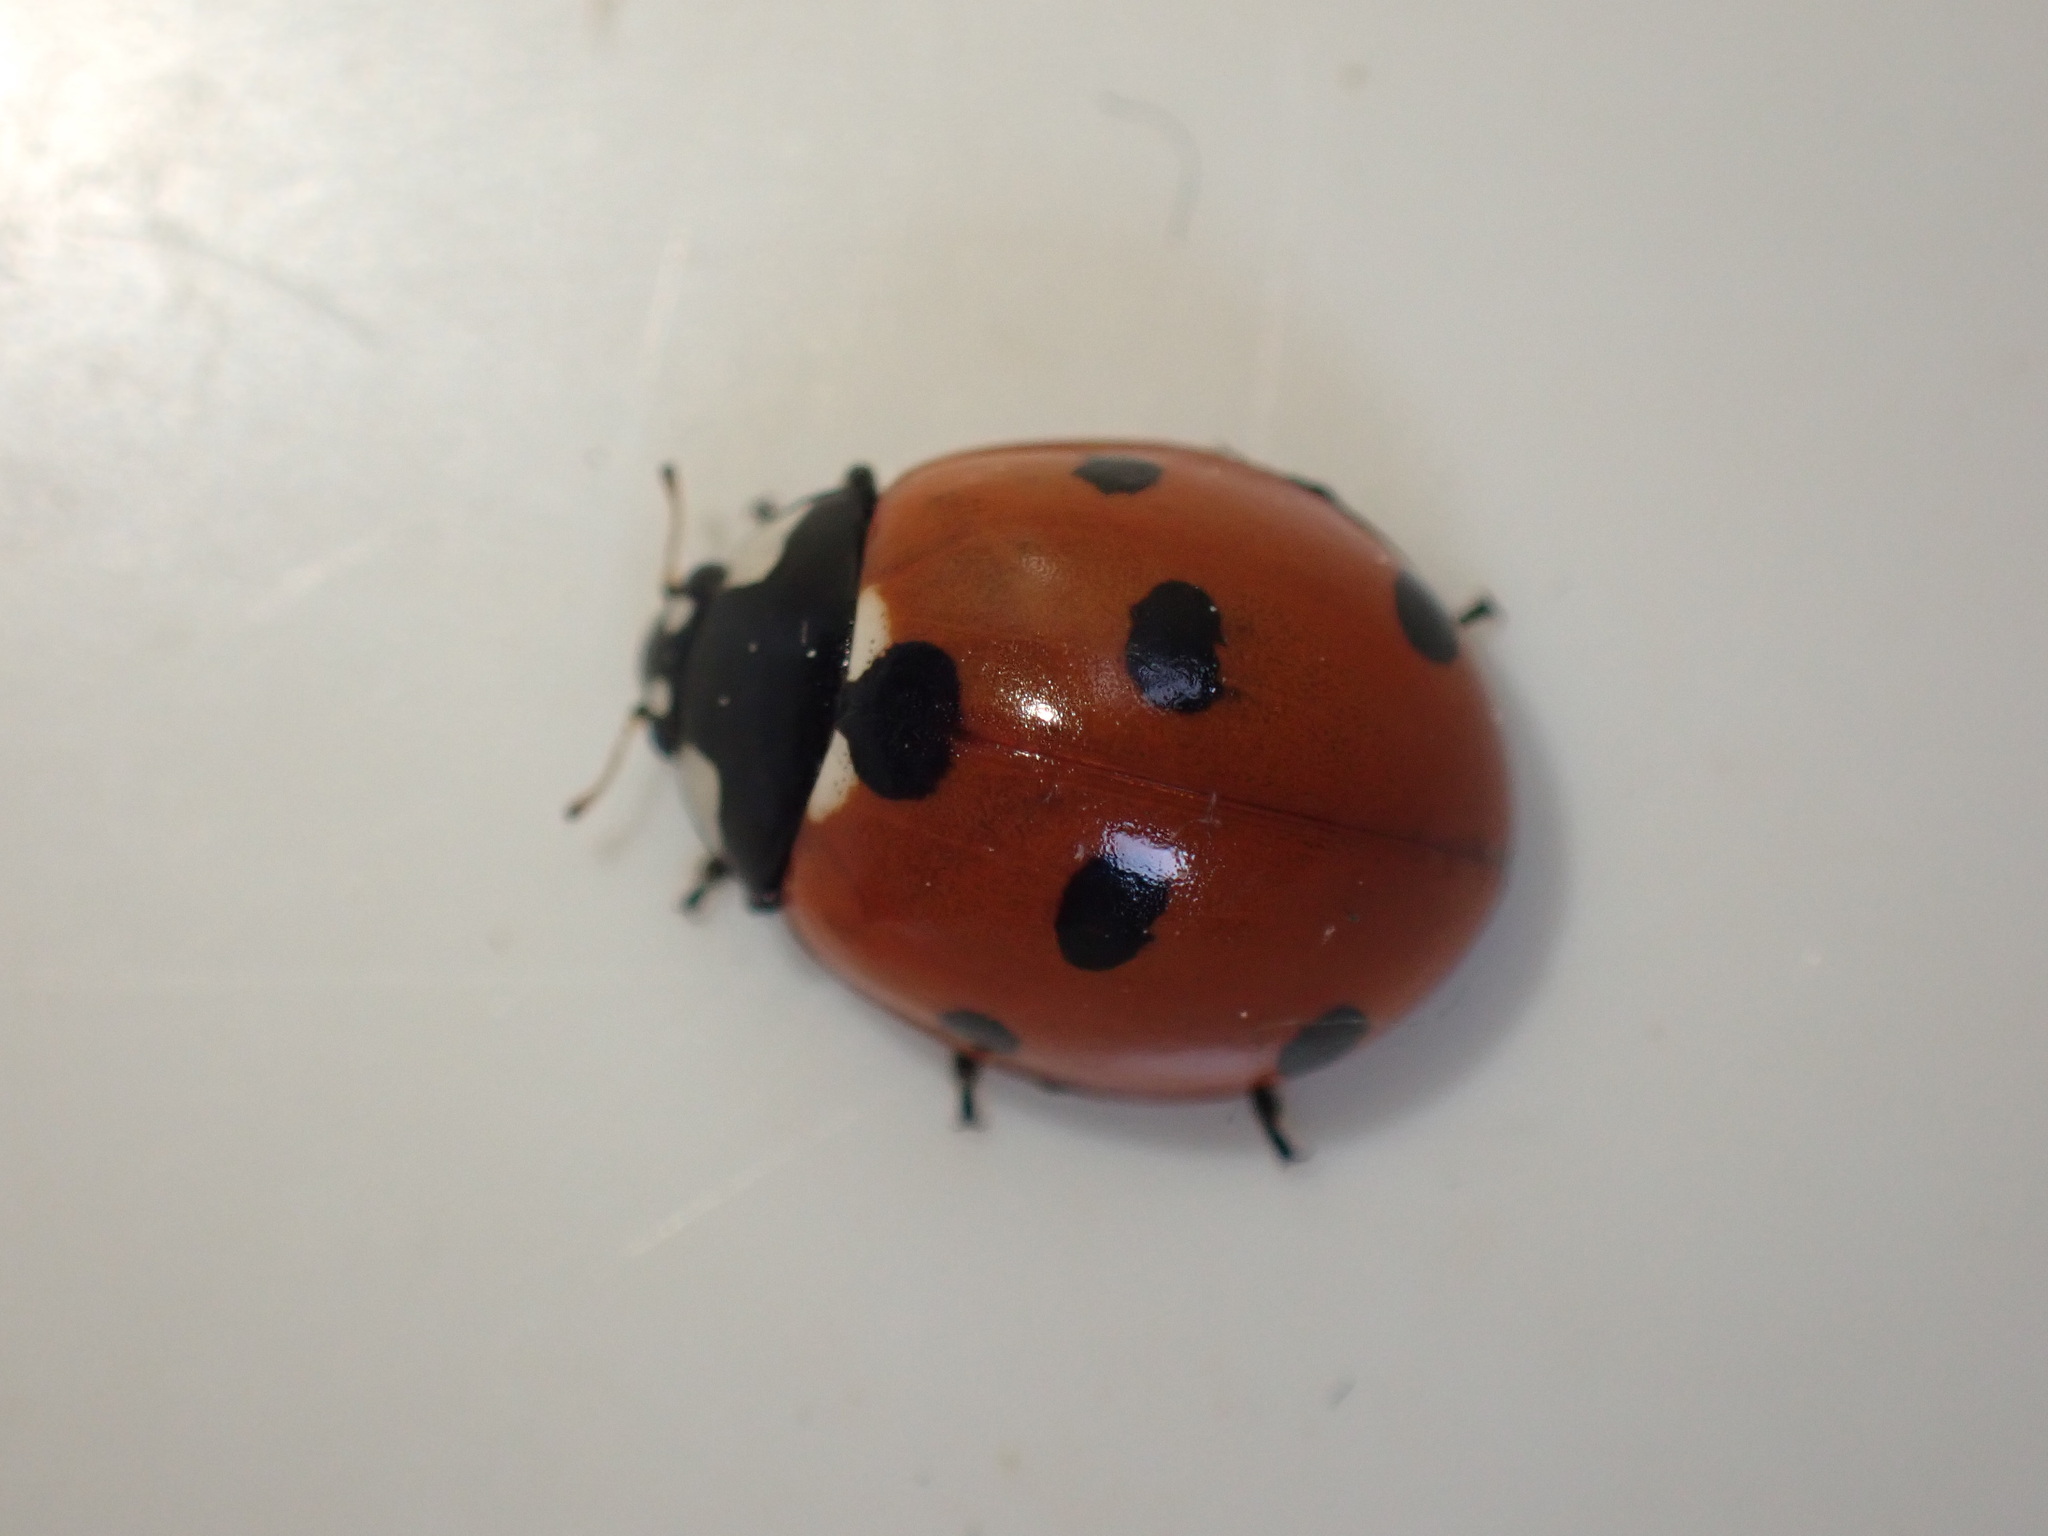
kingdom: Animalia
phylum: Arthropoda
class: Insecta
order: Coleoptera
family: Coccinellidae
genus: Coccinella
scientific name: Coccinella septempunctata
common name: Sevenspotted lady beetle
